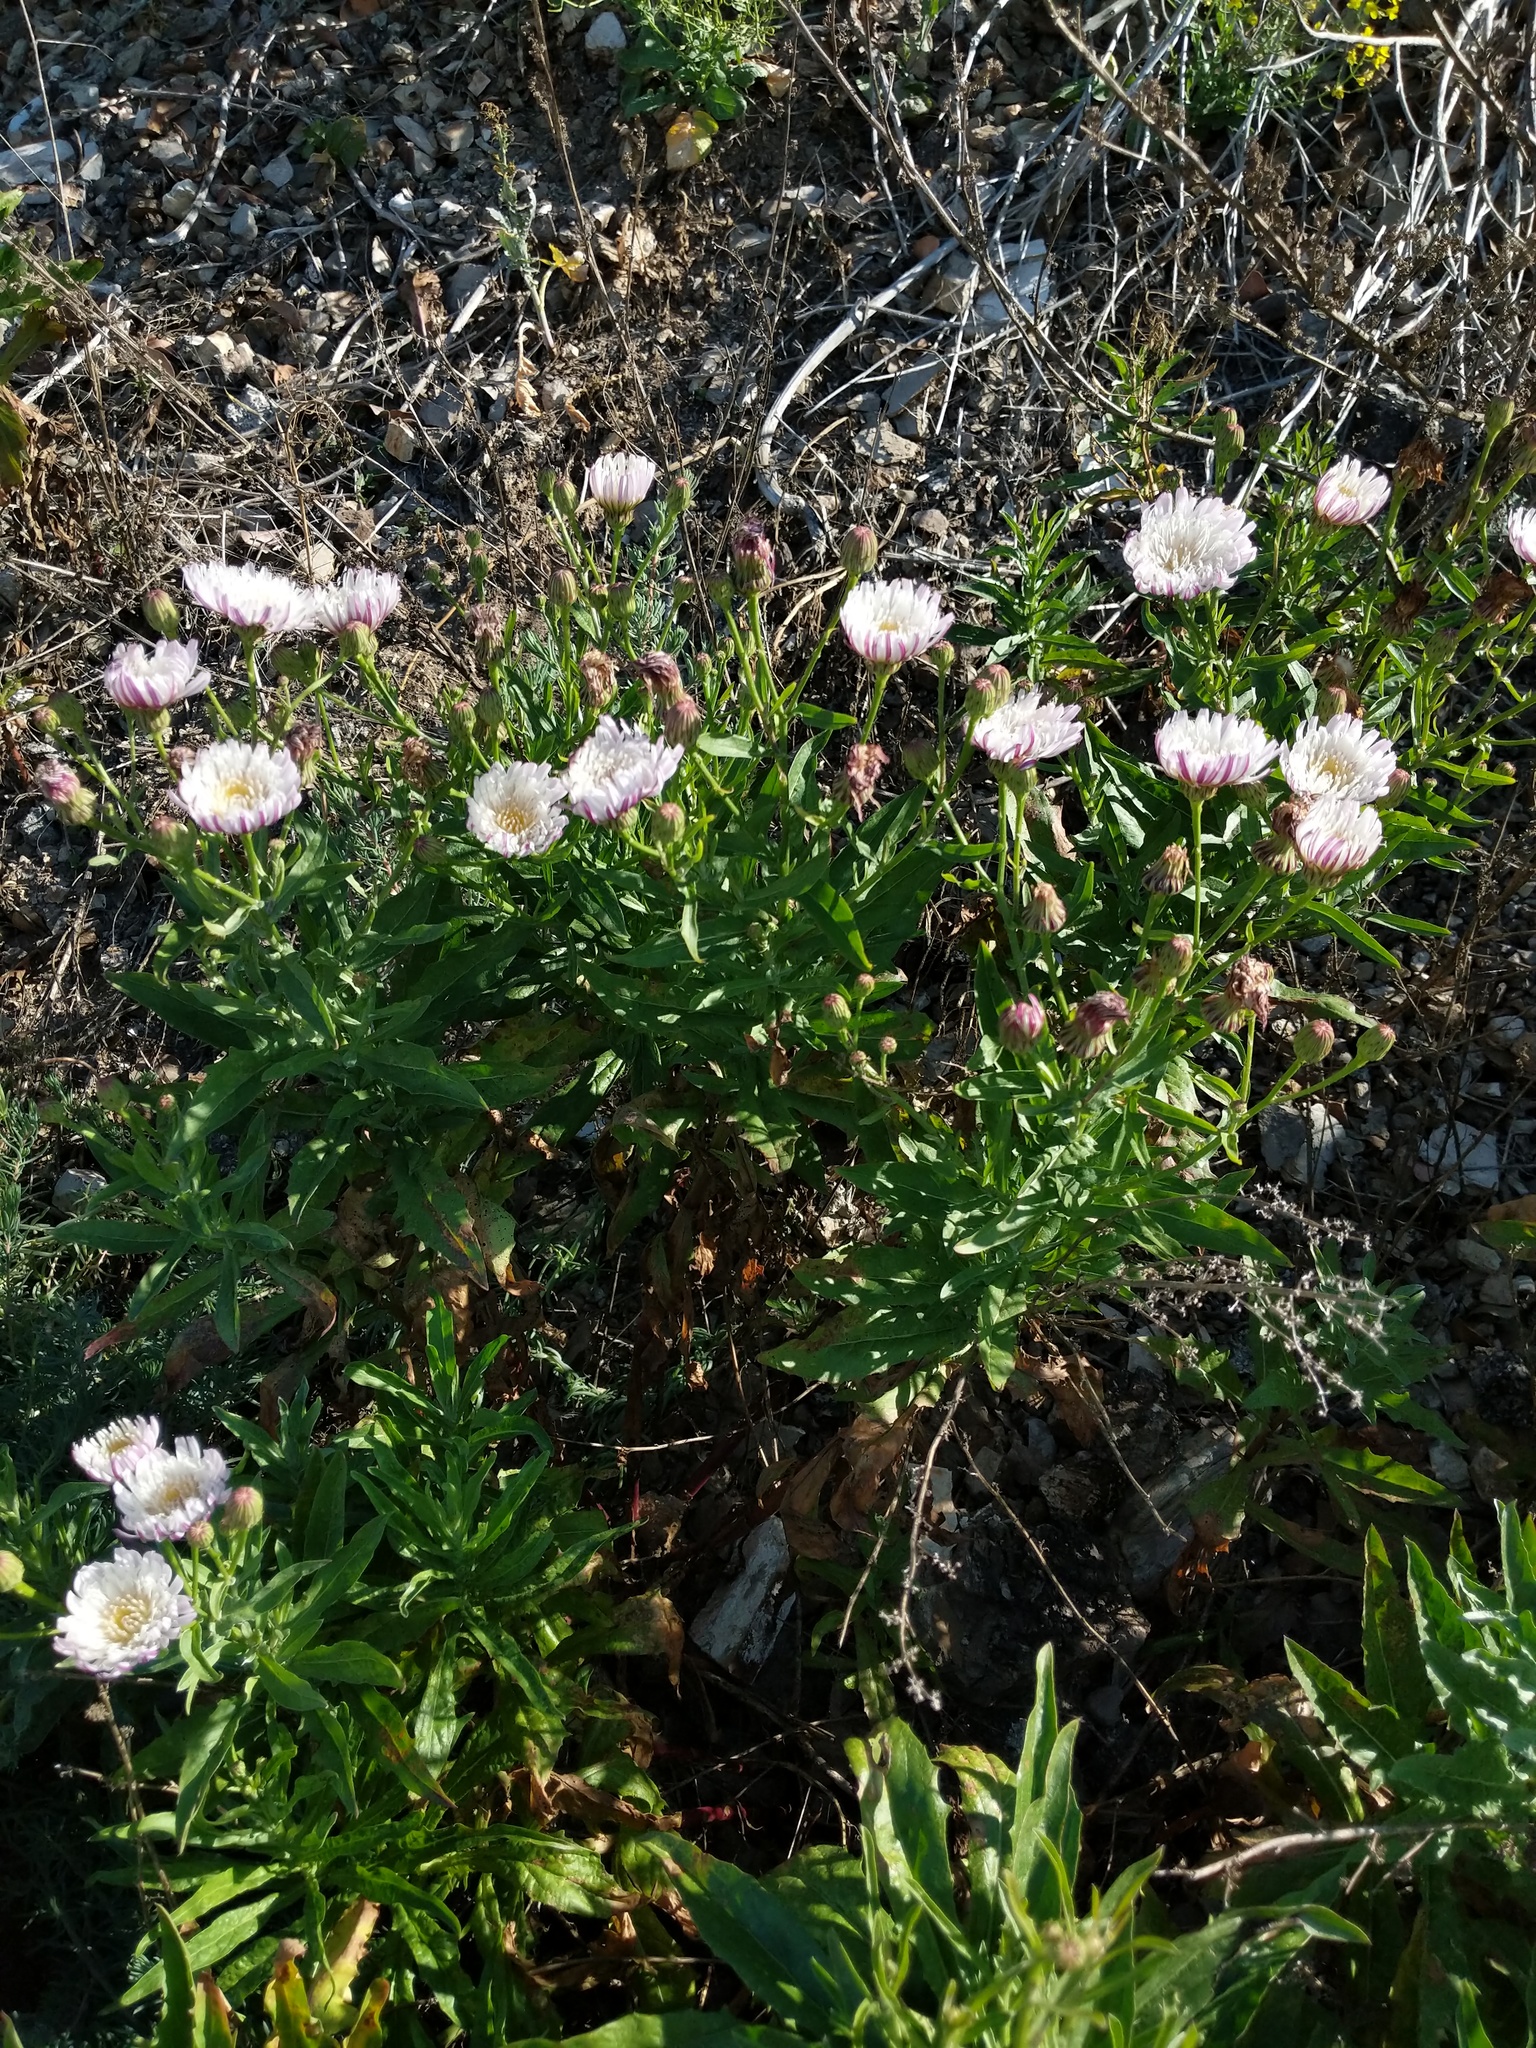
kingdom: Plantae
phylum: Tracheophyta
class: Magnoliopsida
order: Asterales
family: Asteraceae
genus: Malacothrix
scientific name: Malacothrix saxatilis
